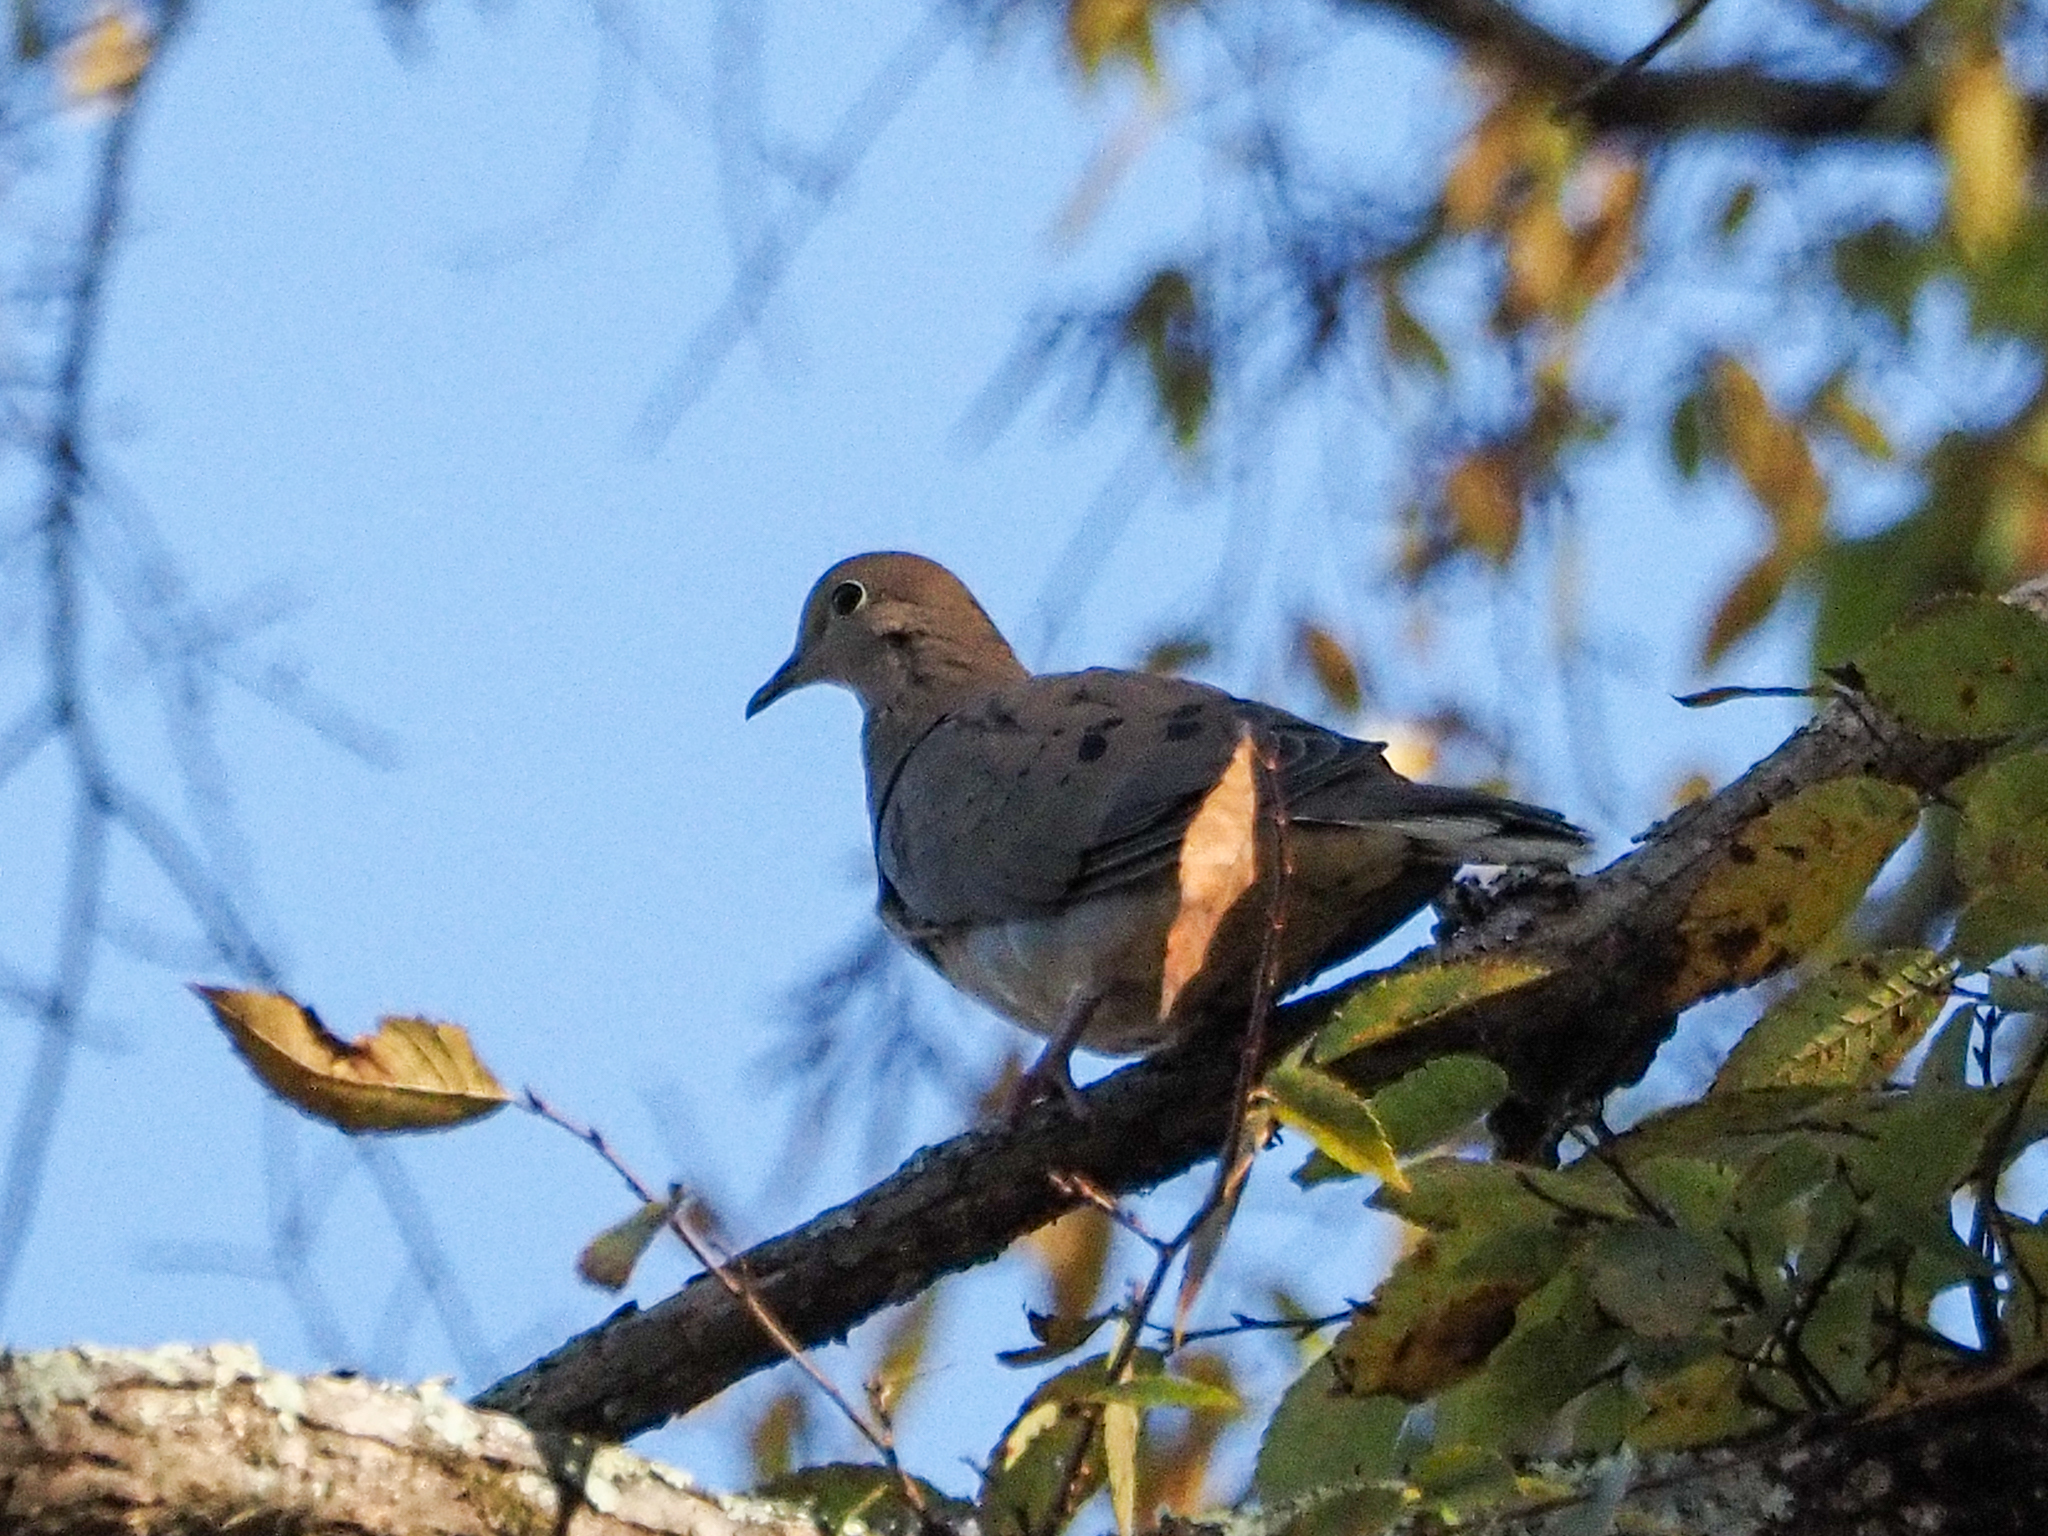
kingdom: Animalia
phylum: Chordata
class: Aves
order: Columbiformes
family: Columbidae
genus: Zenaida
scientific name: Zenaida macroura
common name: Mourning dove
